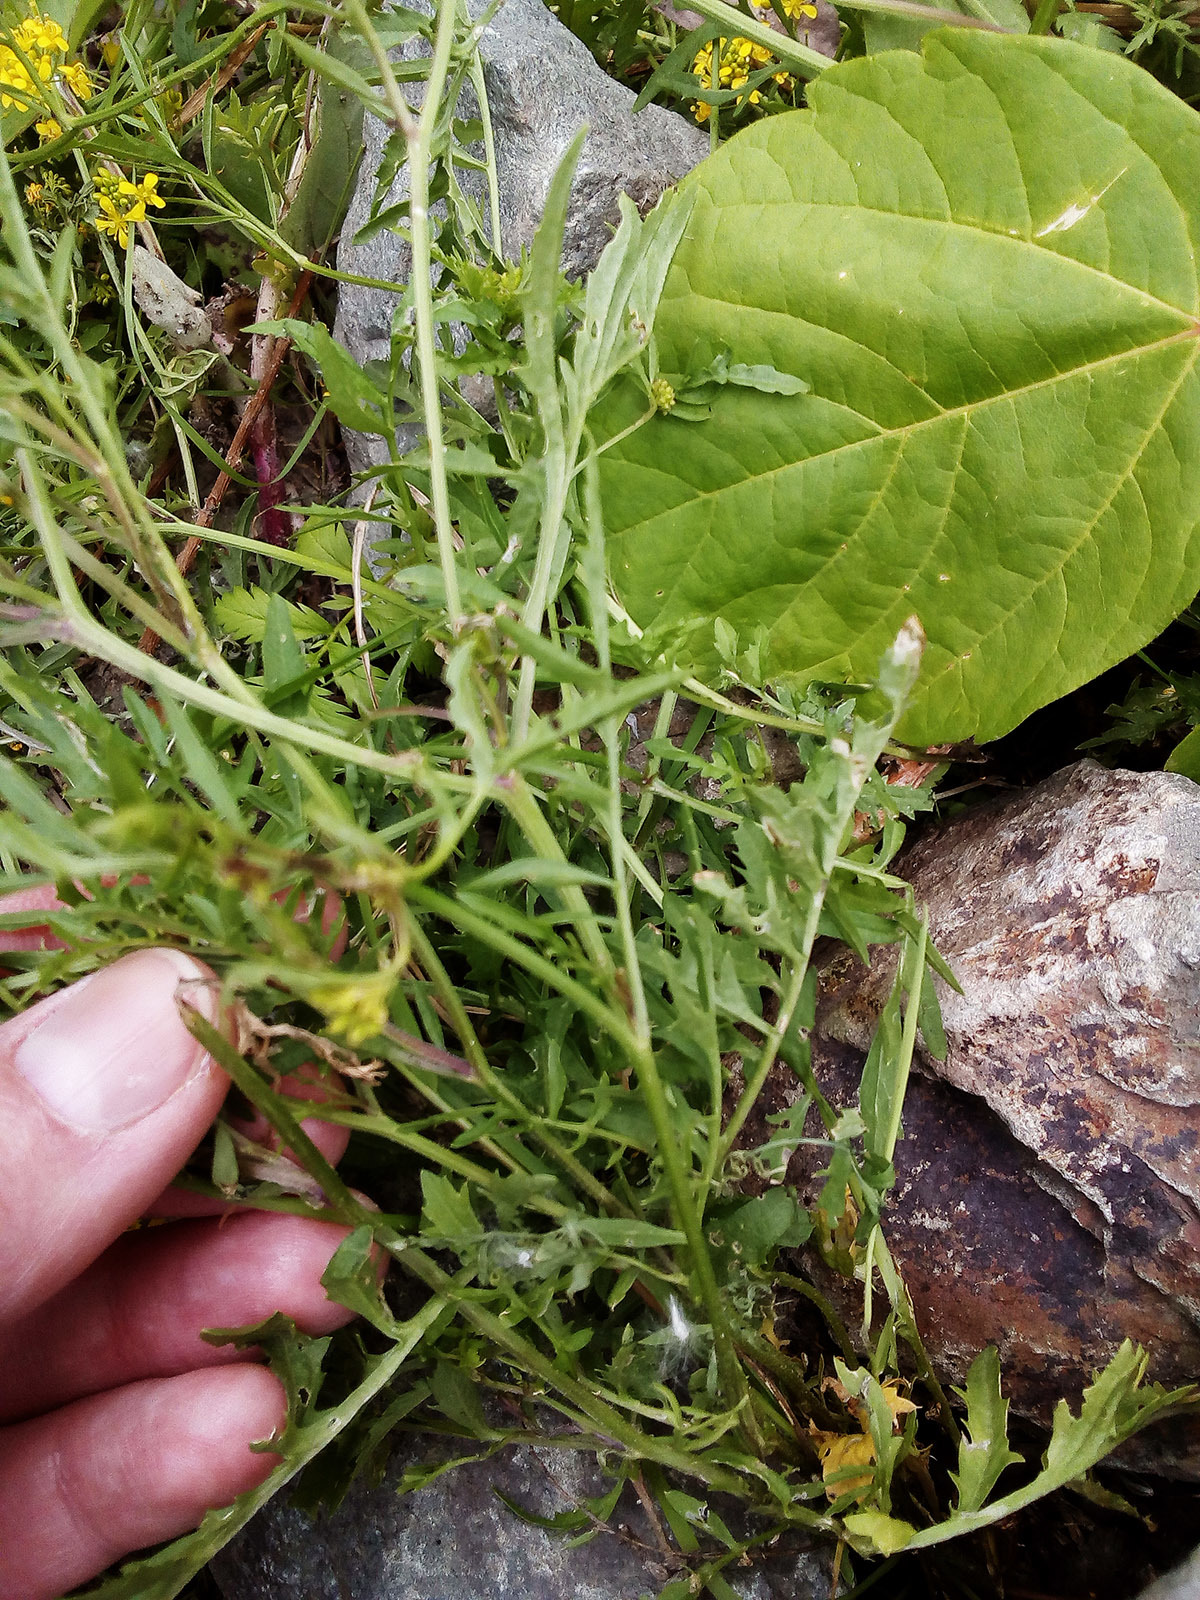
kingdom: Plantae
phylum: Tracheophyta
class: Magnoliopsida
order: Brassicales
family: Brassicaceae
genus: Rorippa
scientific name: Rorippa sylvestris
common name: Creeping yellowcress
